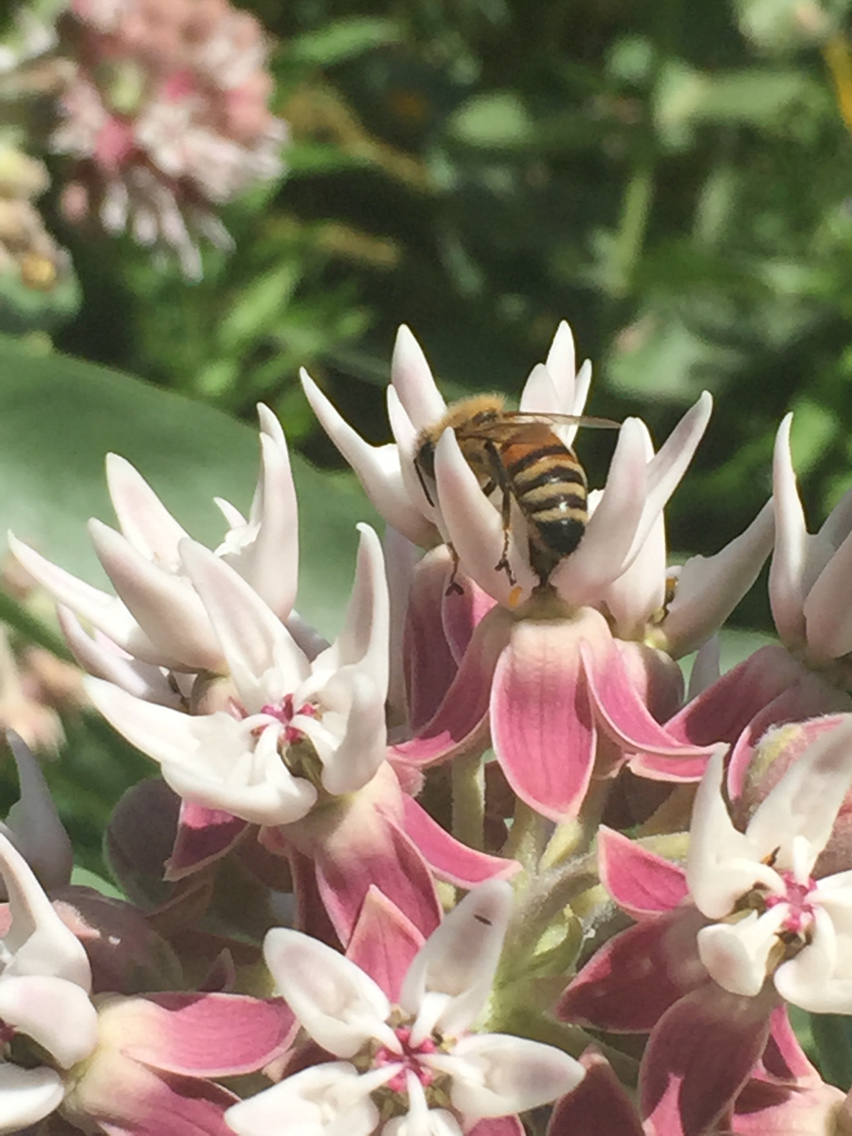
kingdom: Animalia
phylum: Arthropoda
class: Insecta
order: Hymenoptera
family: Apidae
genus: Apis
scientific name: Apis mellifera
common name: Honey bee
